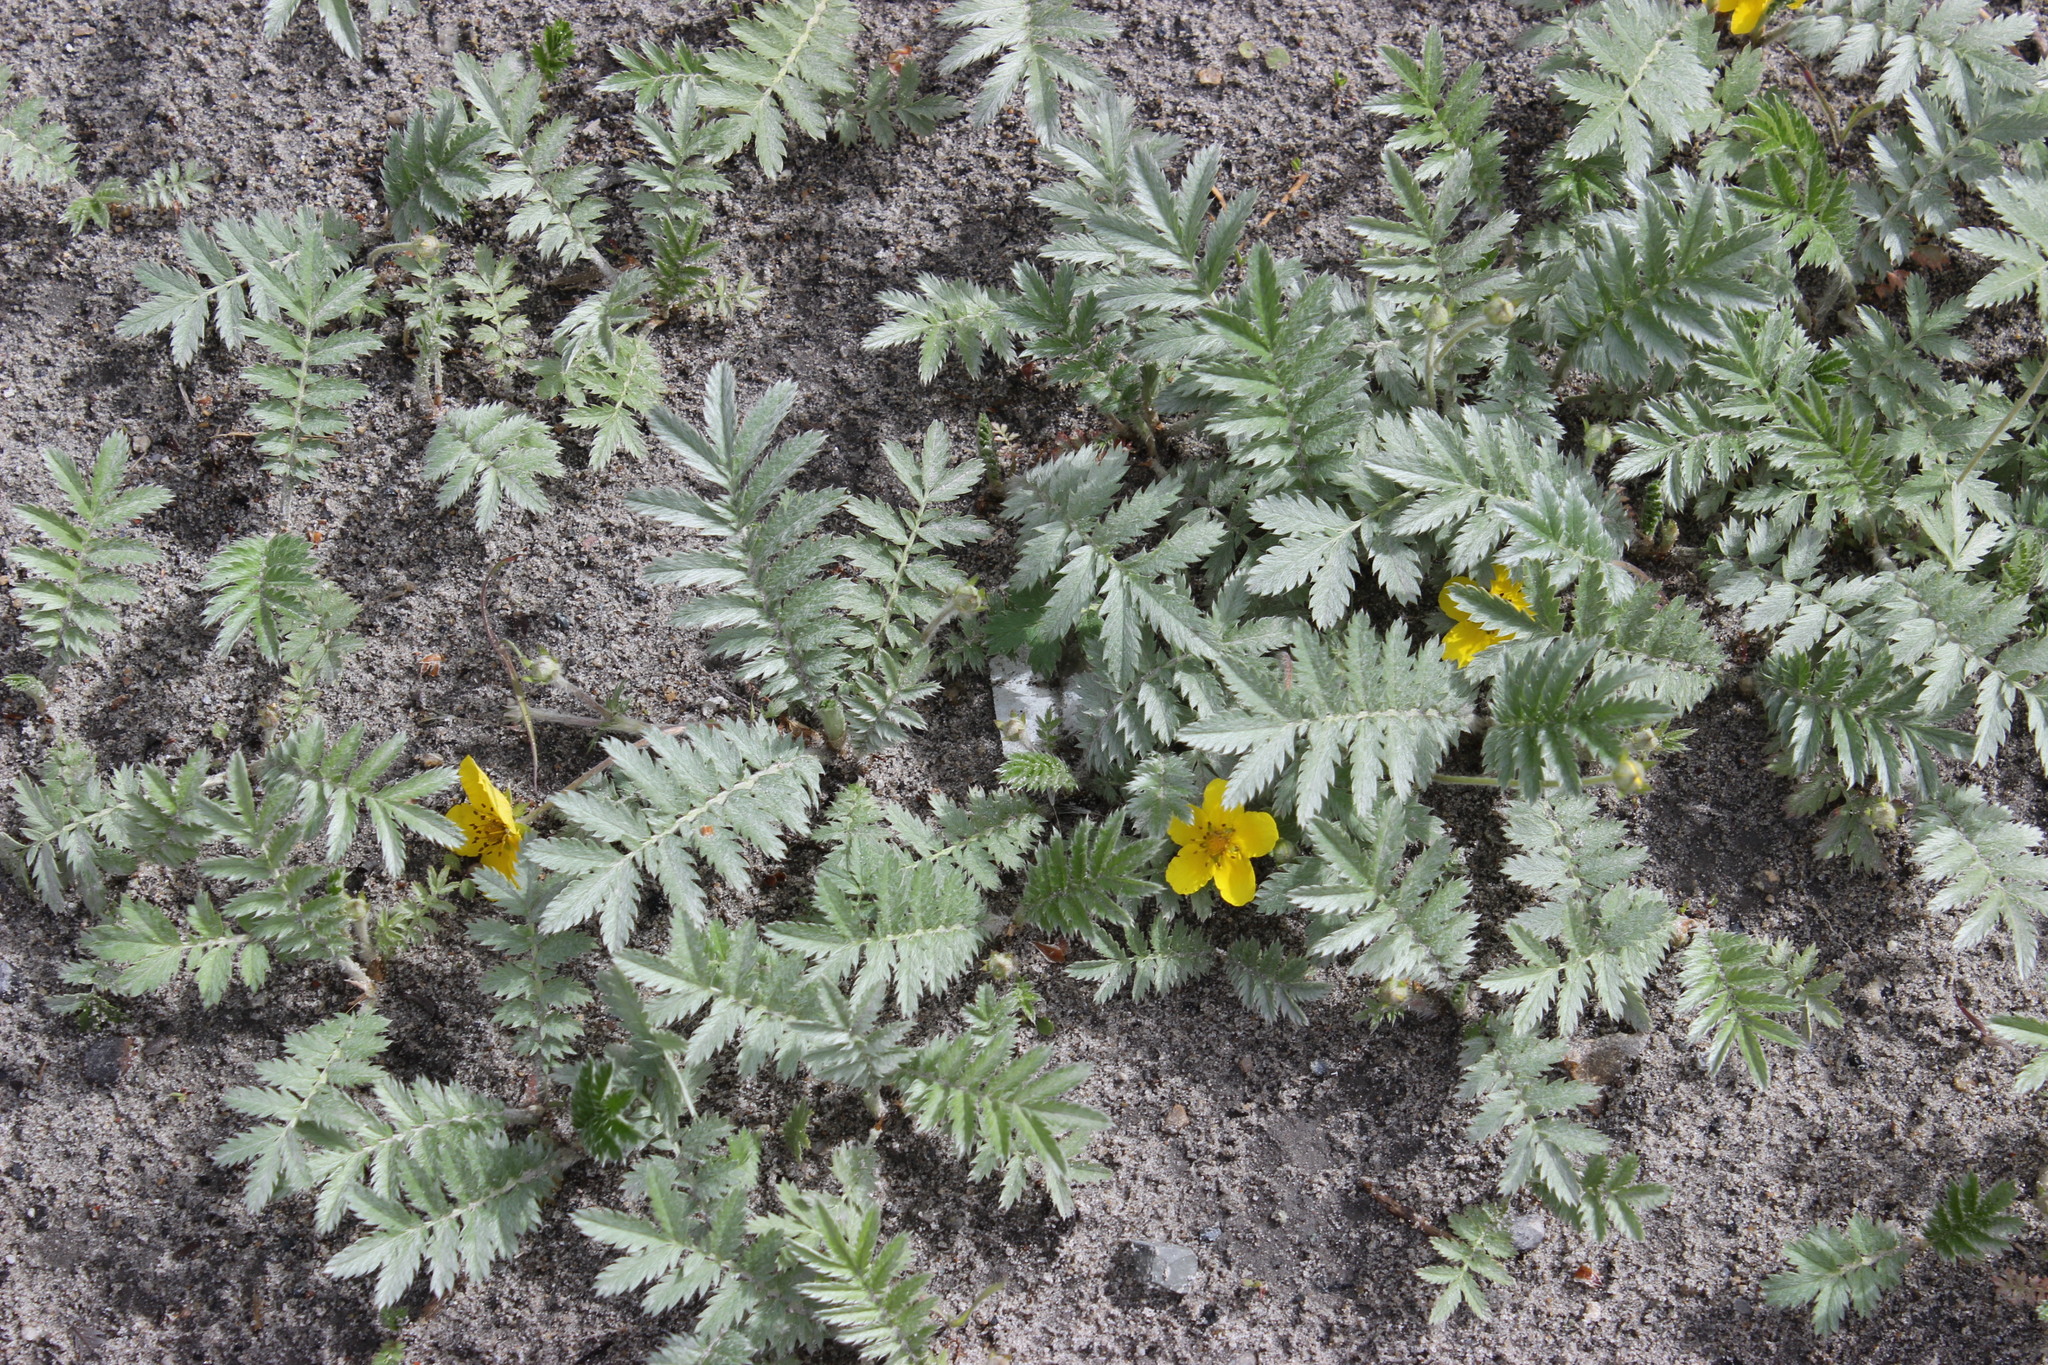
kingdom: Plantae
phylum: Tracheophyta
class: Magnoliopsida
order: Rosales
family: Rosaceae
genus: Argentina
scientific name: Argentina anserina
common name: Common silverweed
